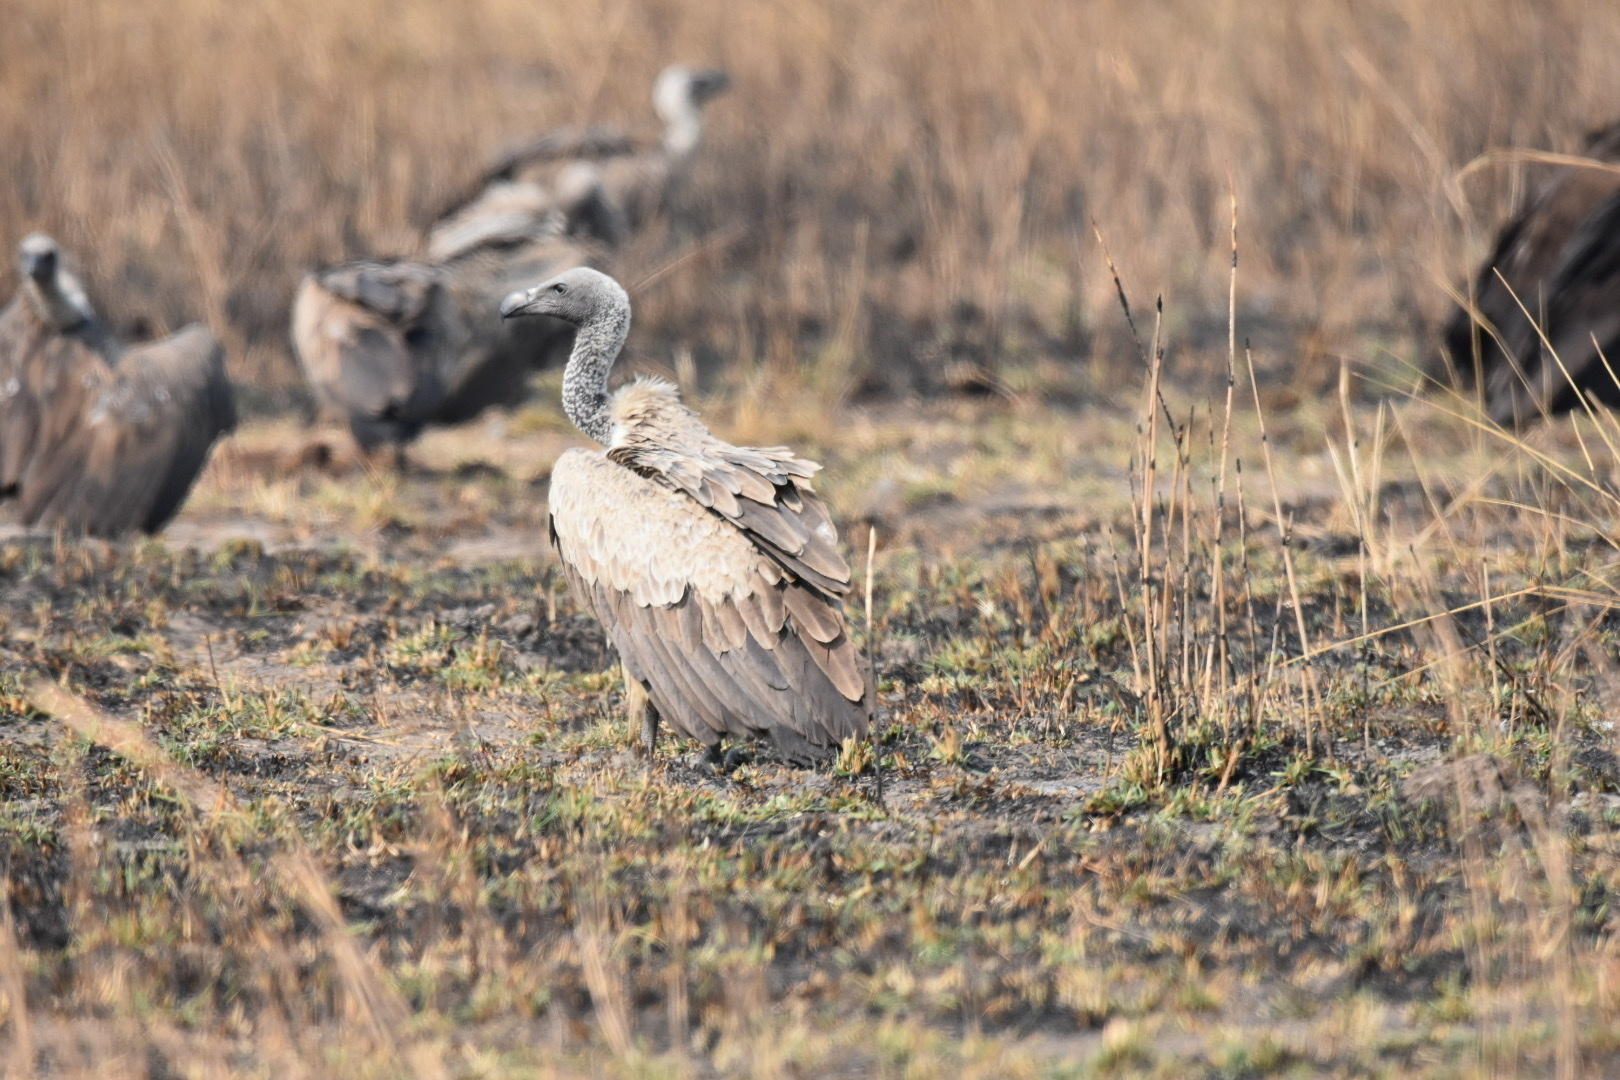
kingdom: Animalia
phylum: Chordata
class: Aves
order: Accipitriformes
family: Accipitridae
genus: Gyps
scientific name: Gyps africanus
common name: White-backed vulture
